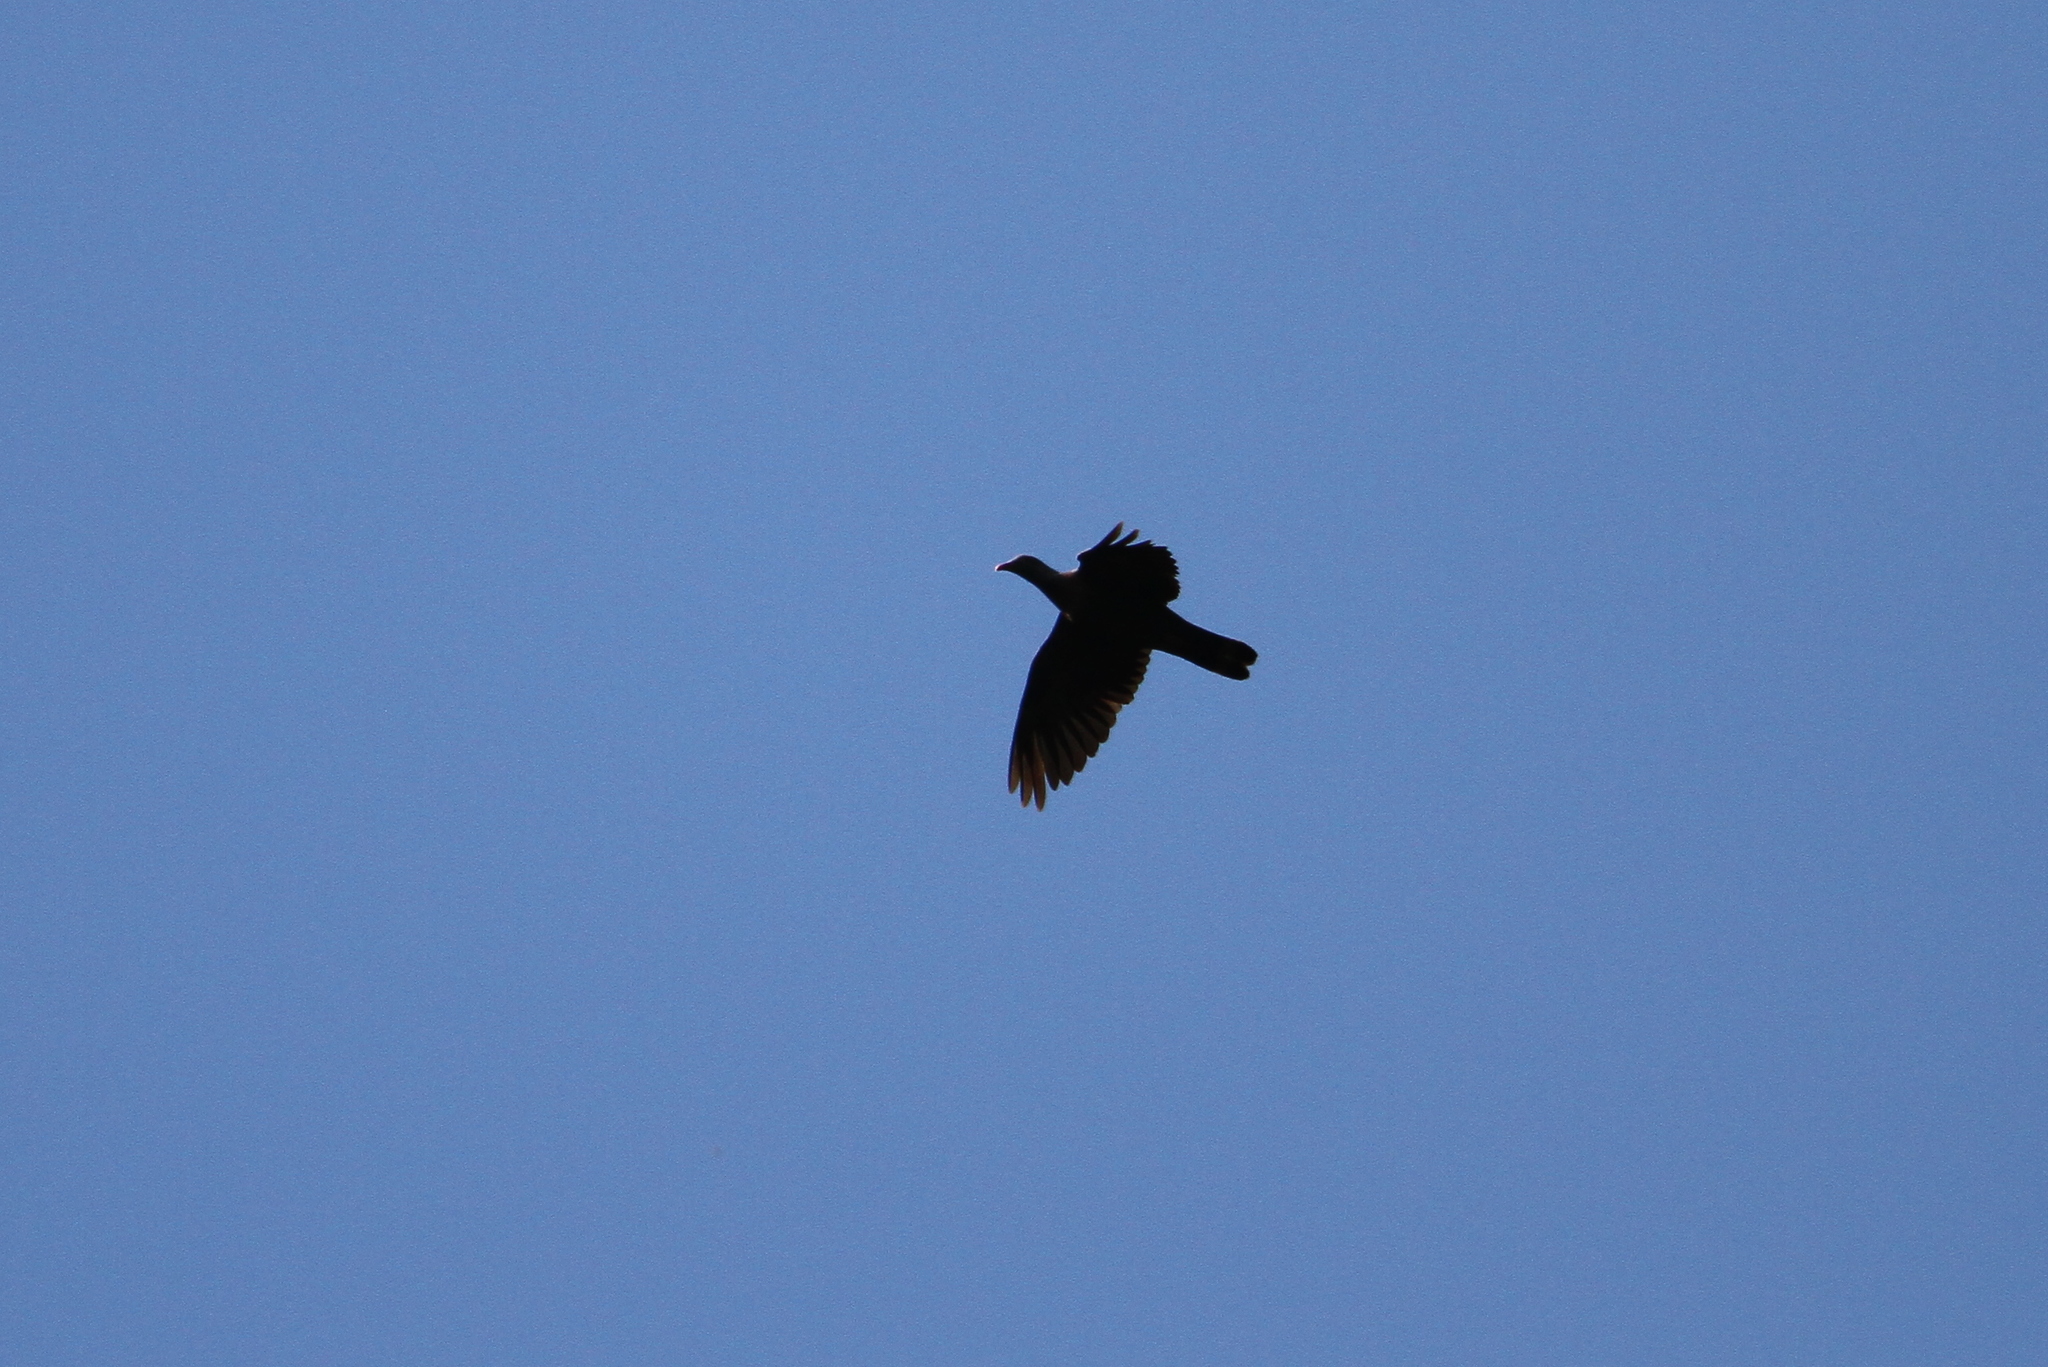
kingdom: Animalia
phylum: Chordata
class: Aves
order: Columbiformes
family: Columbidae
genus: Columba
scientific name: Columba trocaz
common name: Trocaz pigeon
